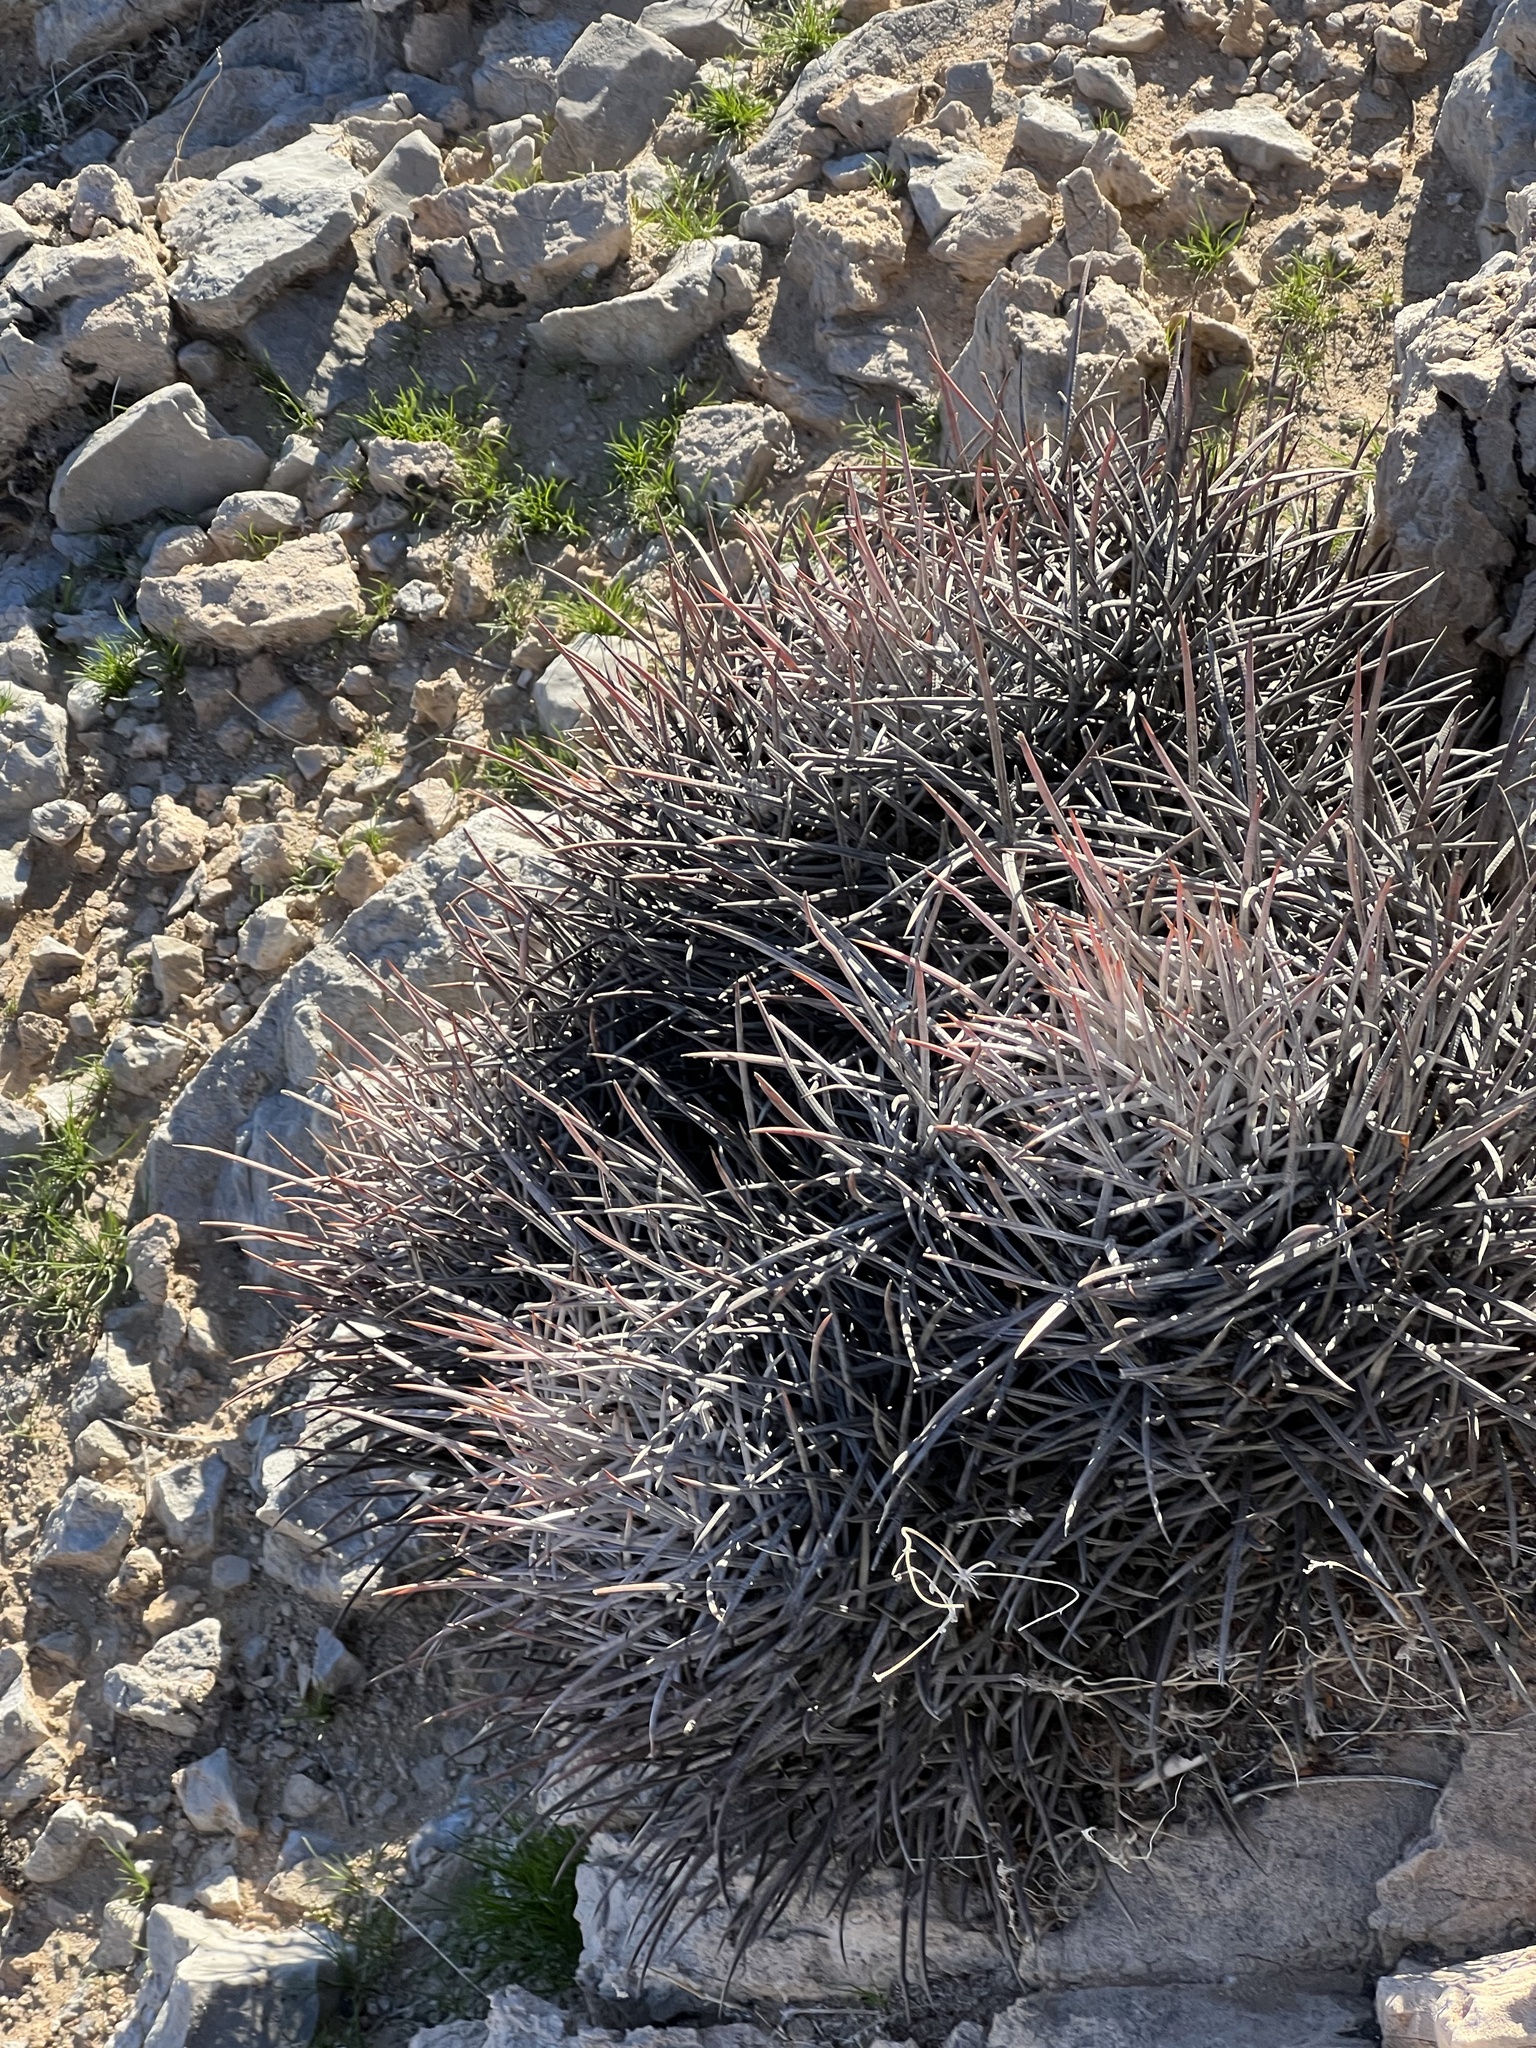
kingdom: Plantae
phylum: Tracheophyta
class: Magnoliopsida
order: Caryophyllales
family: Cactaceae
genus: Echinocactus
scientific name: Echinocactus polycephalus
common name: Cottontop cactus
